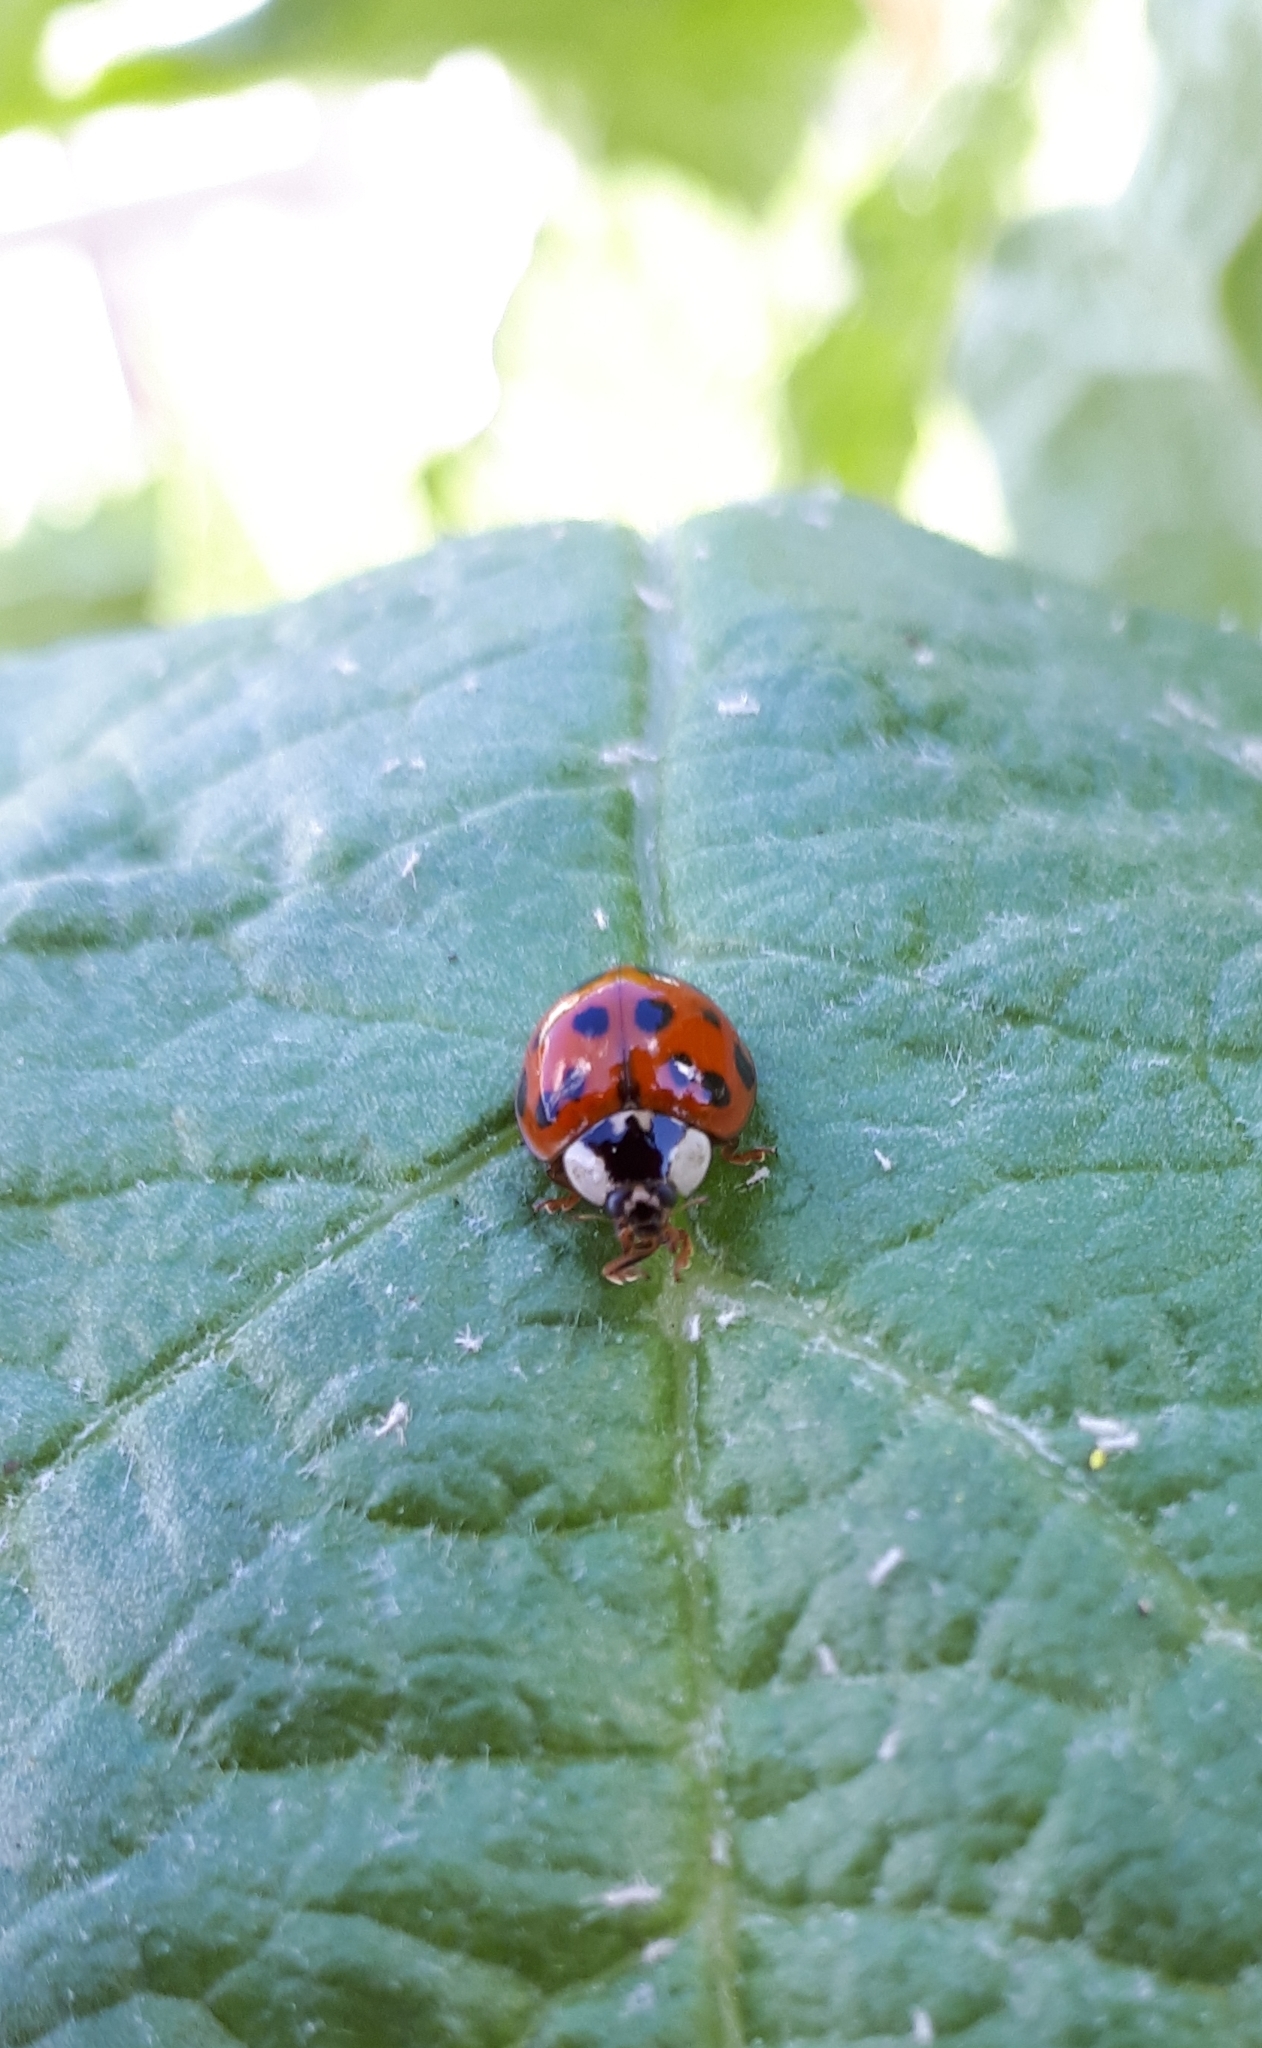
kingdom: Animalia
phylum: Arthropoda
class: Insecta
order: Coleoptera
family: Coccinellidae
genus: Harmonia
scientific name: Harmonia axyridis
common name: Harlequin ladybird
